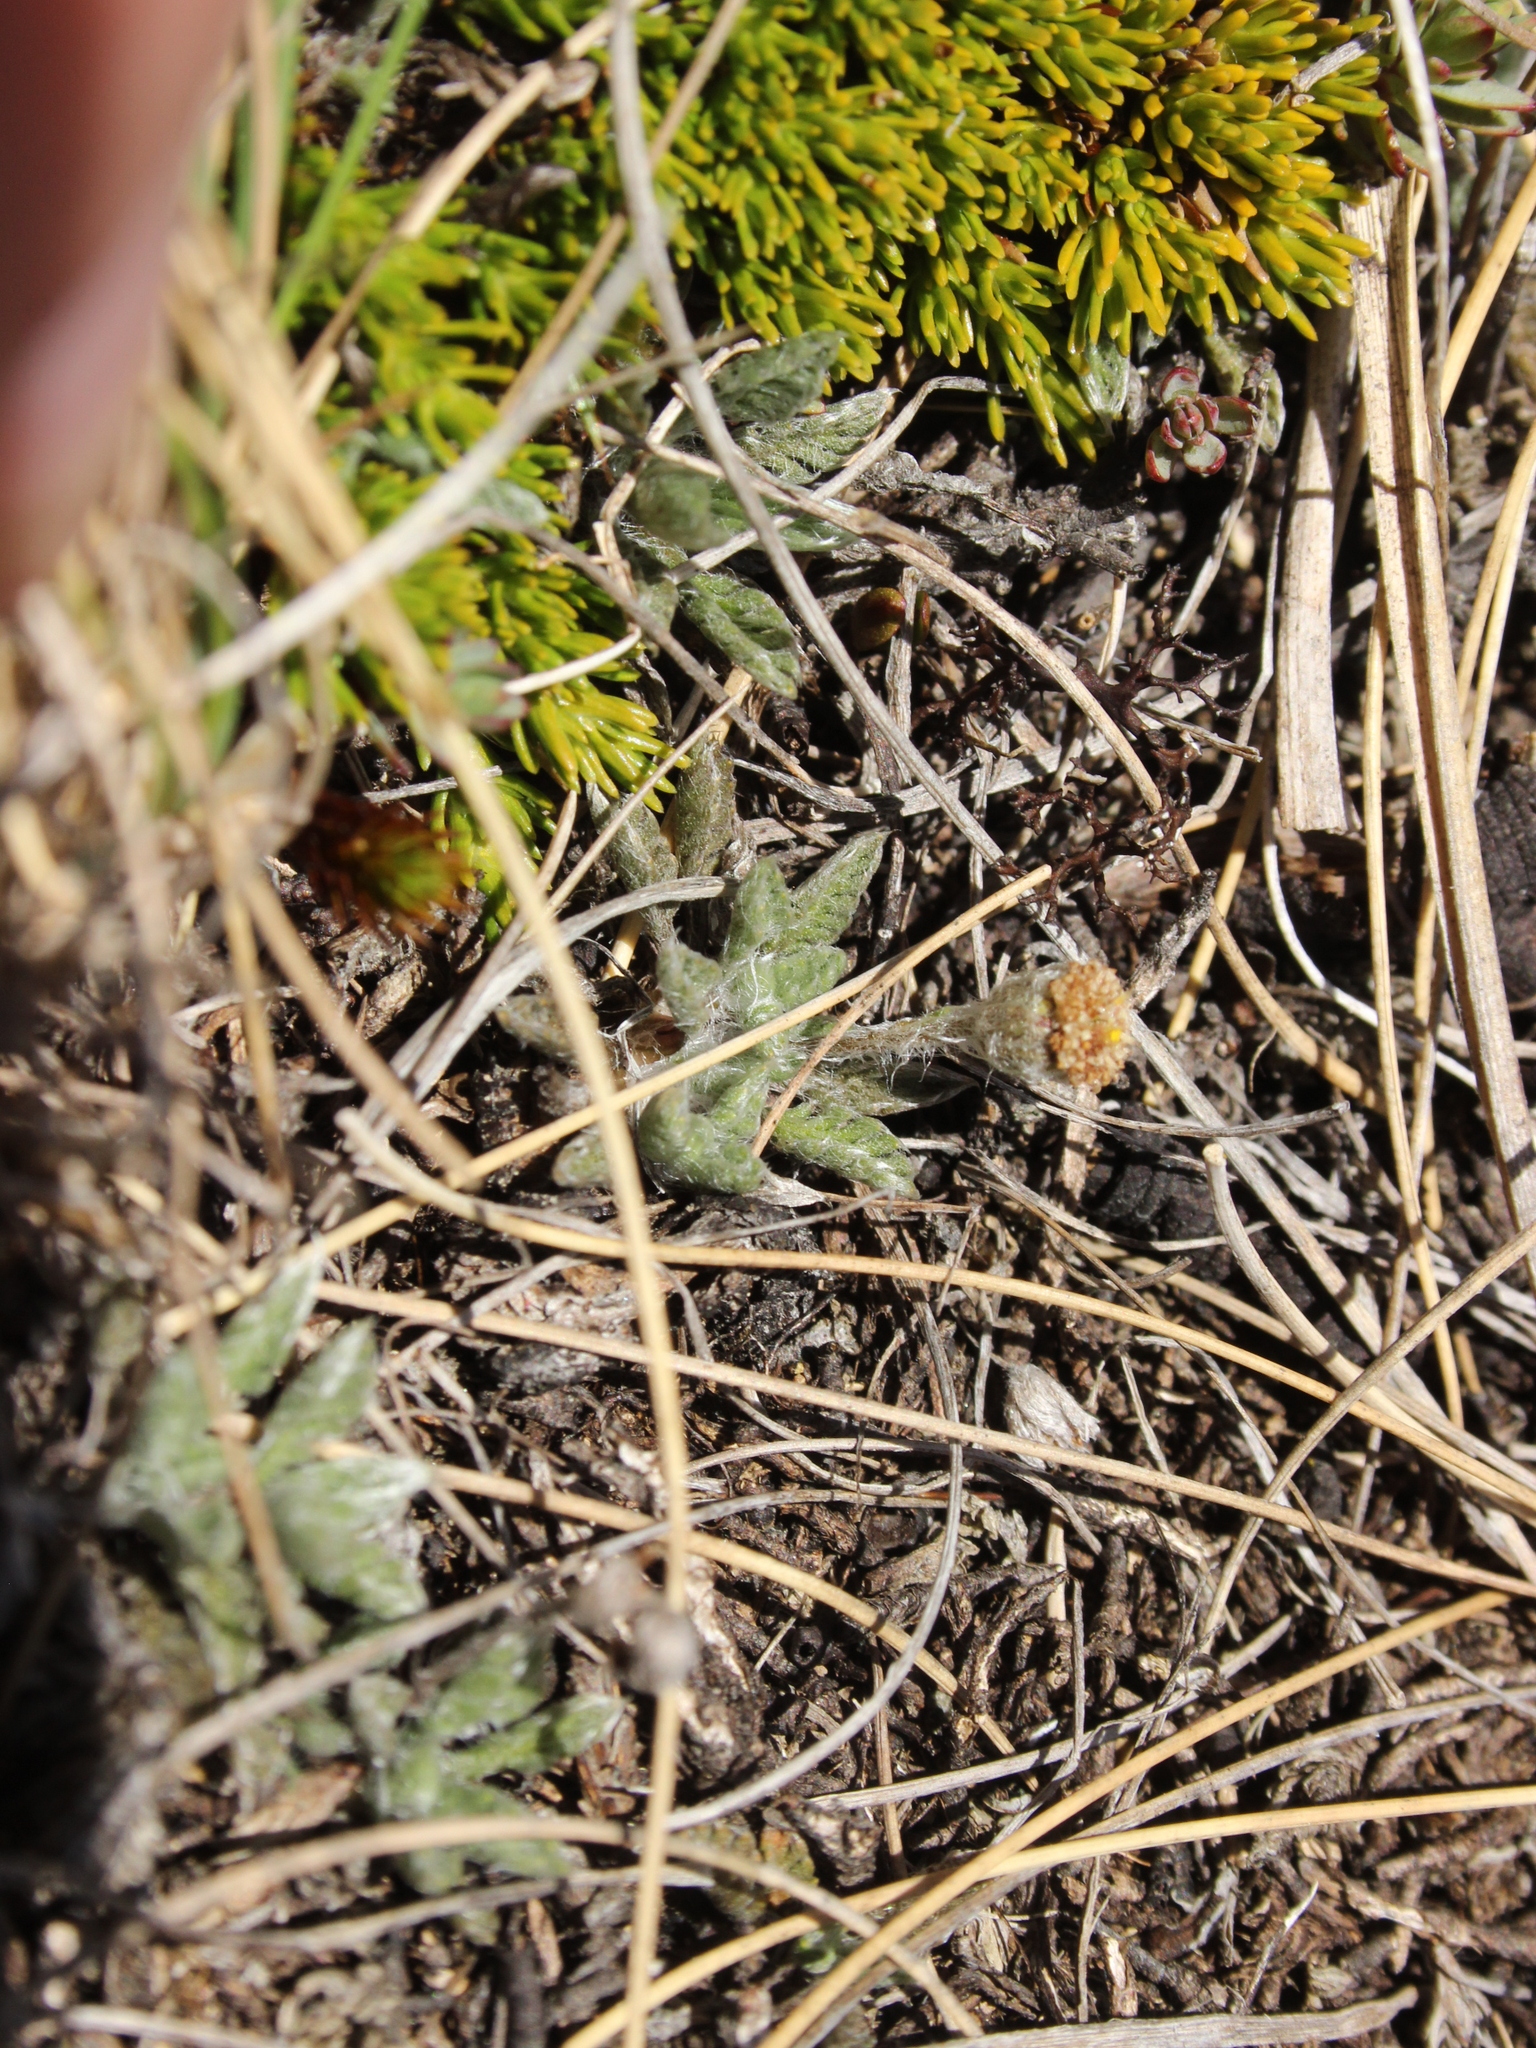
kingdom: Plantae
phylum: Tracheophyta
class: Magnoliopsida
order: Asterales
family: Asteraceae
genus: Leptinella
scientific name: Leptinella pectinata
